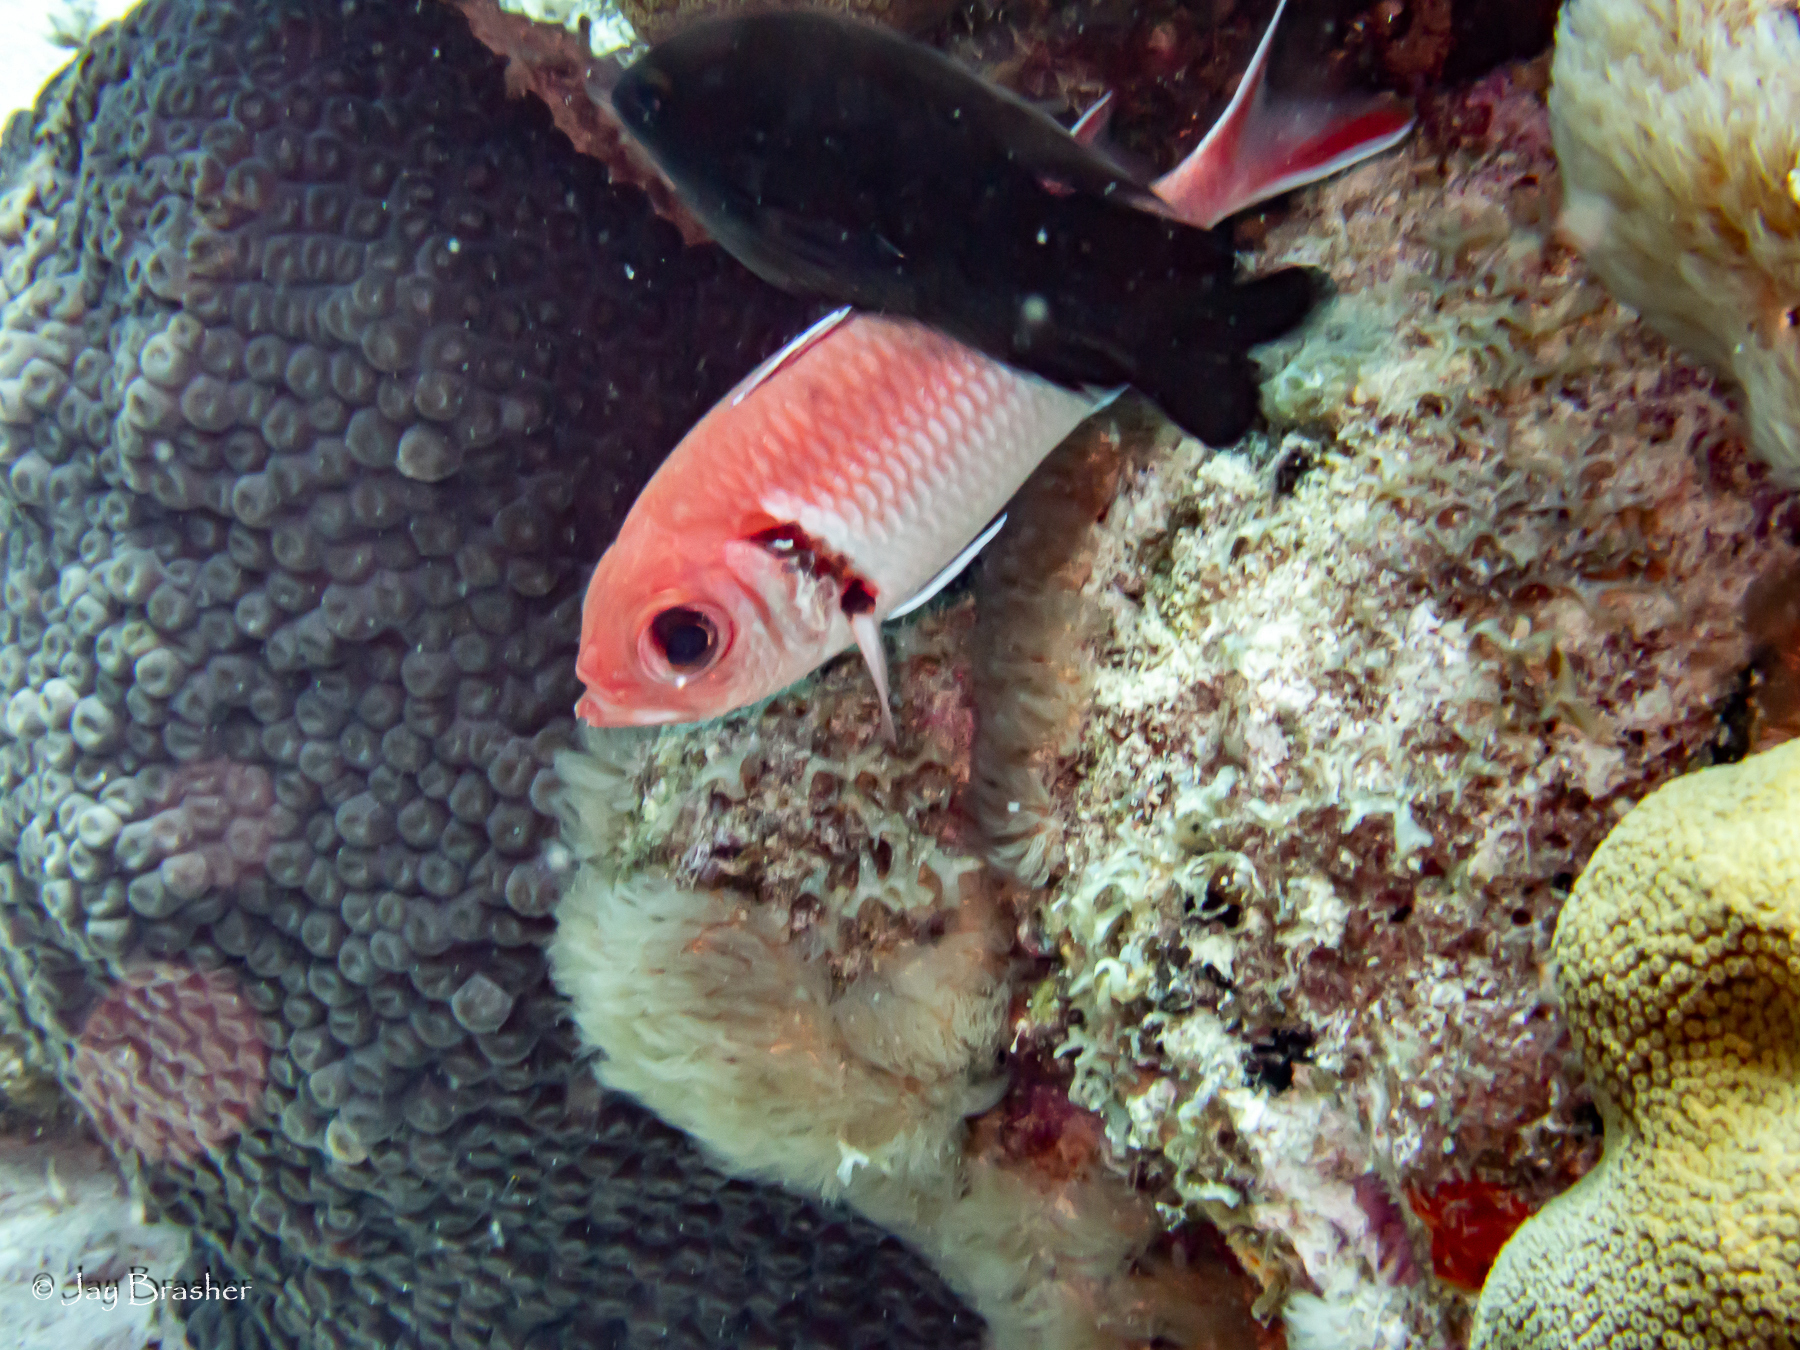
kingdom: Animalia
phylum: Chordata
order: Beryciformes
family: Holocentridae
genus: Myripristis
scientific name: Myripristis jacobus
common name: Blackbar soldierfish
